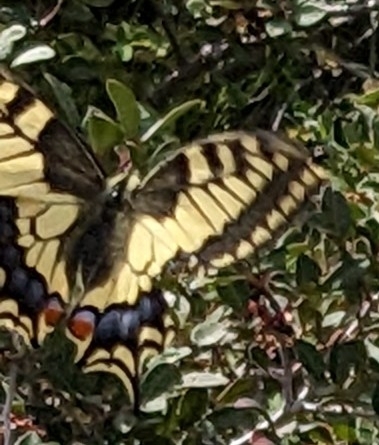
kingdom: Animalia
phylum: Arthropoda
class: Insecta
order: Lepidoptera
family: Papilionidae
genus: Papilio
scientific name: Papilio machaon
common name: Swallowtail
